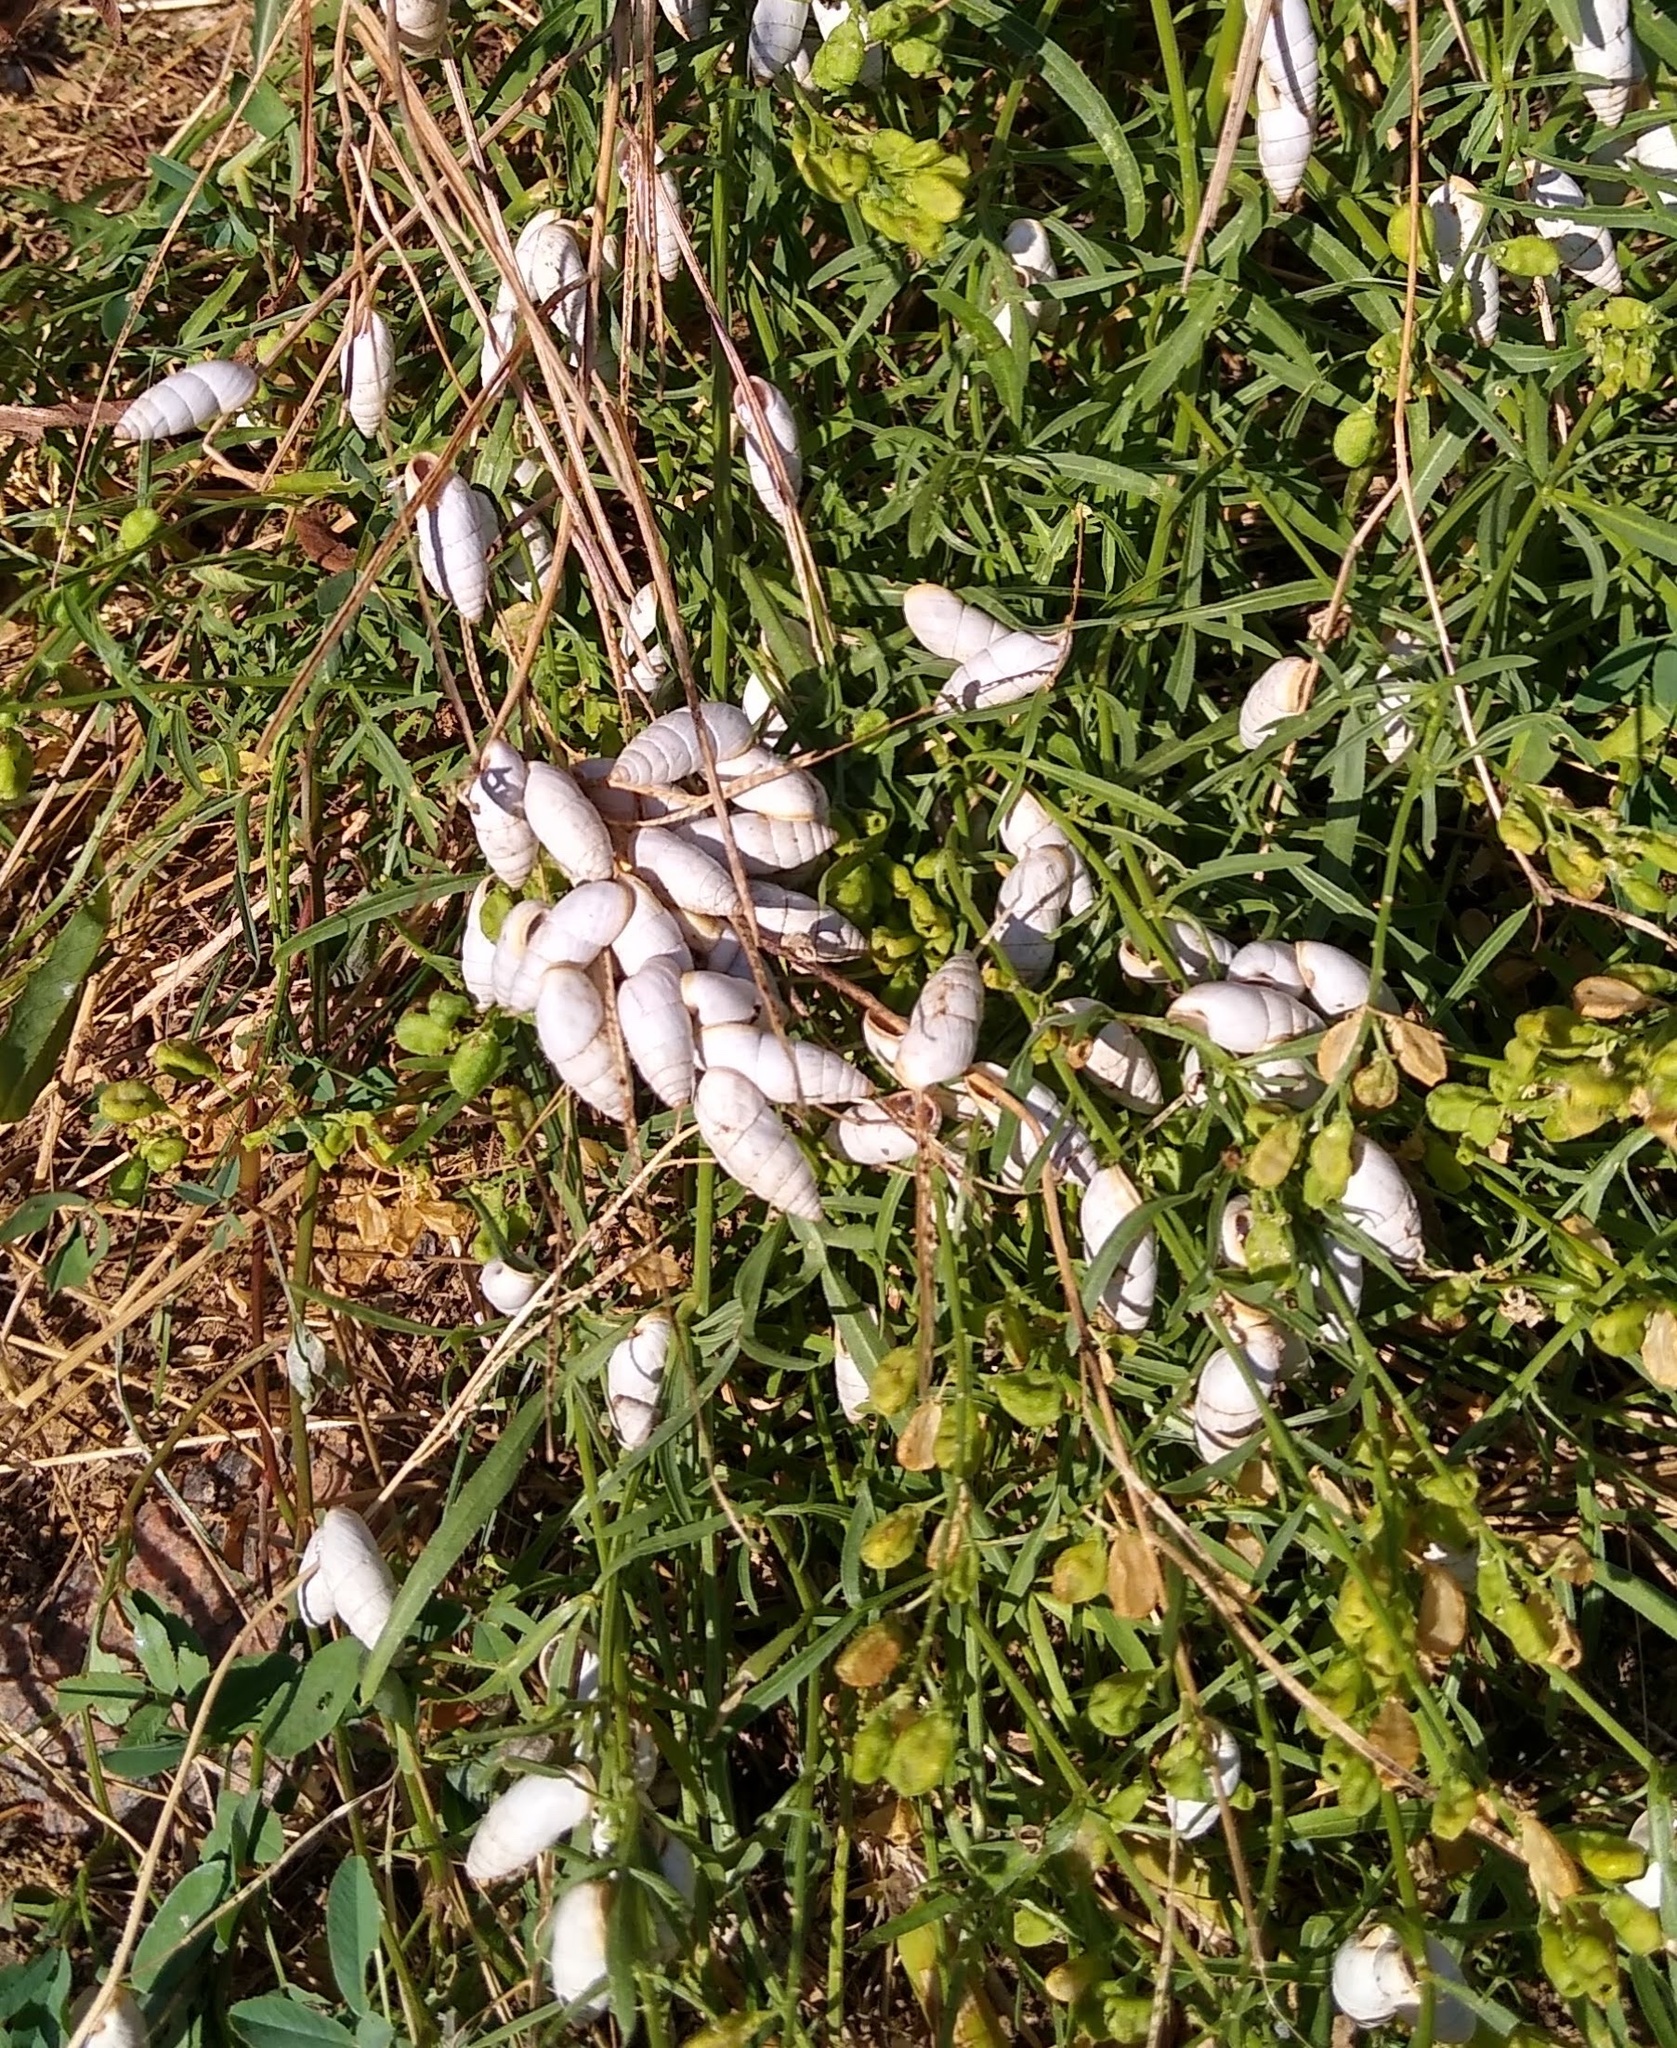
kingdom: Animalia
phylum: Mollusca
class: Gastropoda
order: Stylommatophora
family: Enidae
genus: Brephulopsis
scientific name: Brephulopsis cylindrica
